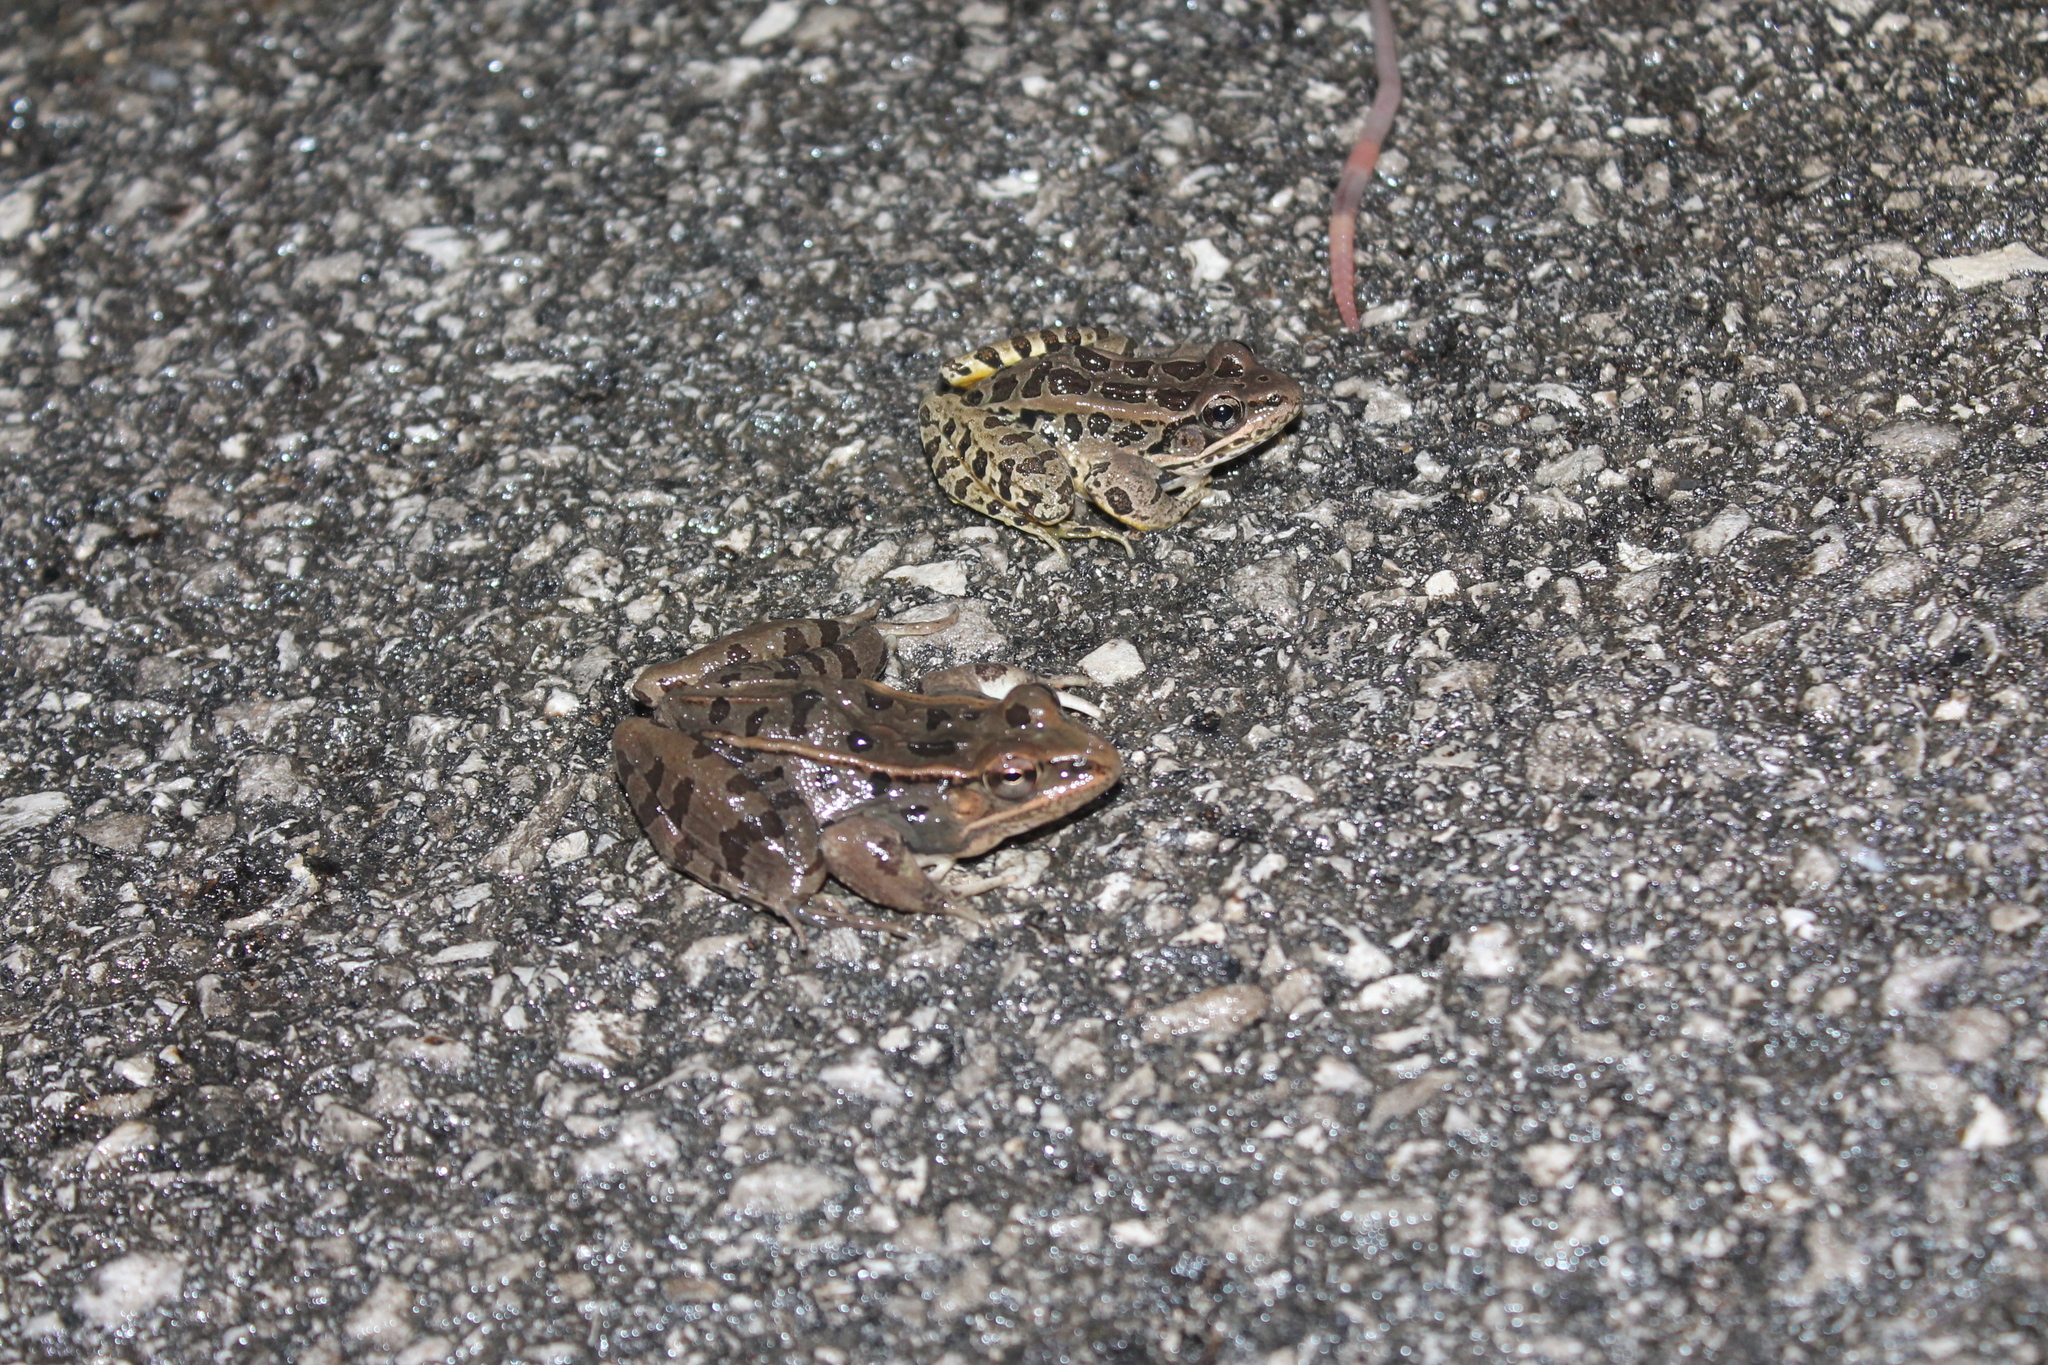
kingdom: Animalia
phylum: Chordata
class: Amphibia
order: Anura
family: Ranidae
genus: Lithobates
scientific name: Lithobates sphenocephalus
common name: Southern leopard frog
